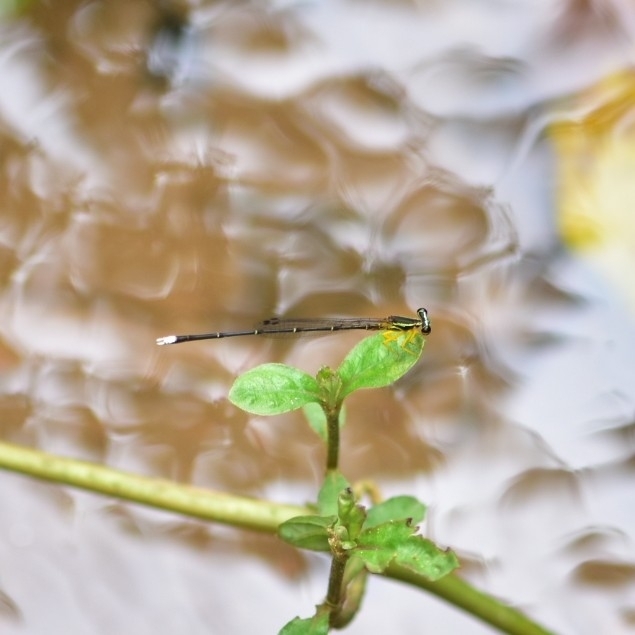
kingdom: Animalia
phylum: Arthropoda
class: Insecta
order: Odonata
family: Platycnemididae
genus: Copera
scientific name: Copera marginipes
